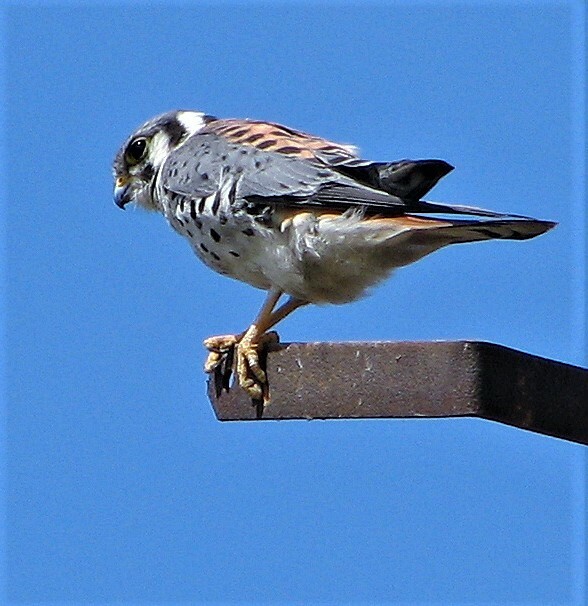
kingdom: Animalia
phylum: Chordata
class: Aves
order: Falconiformes
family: Falconidae
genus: Falco
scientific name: Falco sparverius
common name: American kestrel
